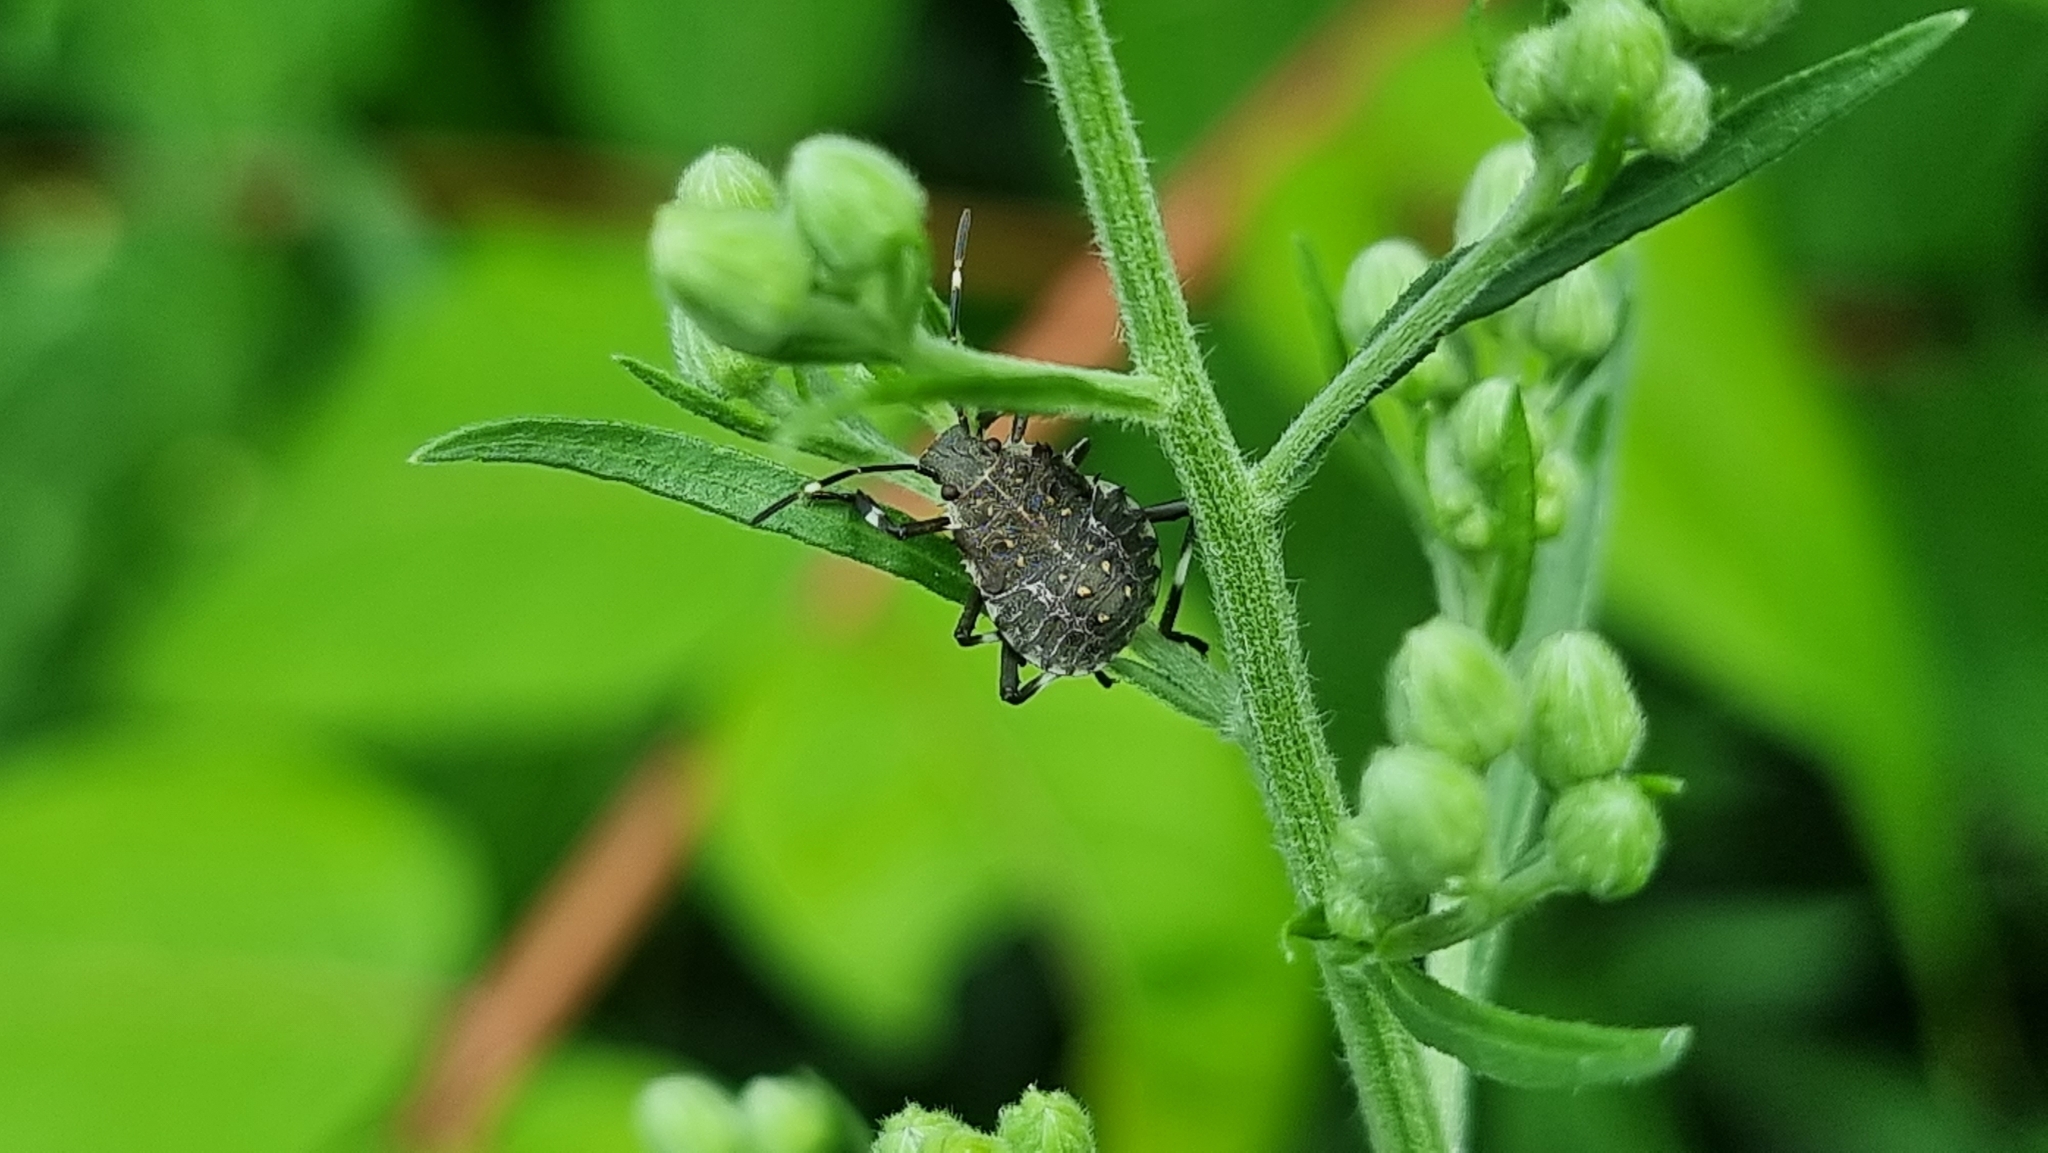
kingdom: Animalia
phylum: Arthropoda
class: Insecta
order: Hemiptera
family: Pentatomidae
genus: Halyomorpha
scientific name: Halyomorpha halys
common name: Brown marmorated stink bug
